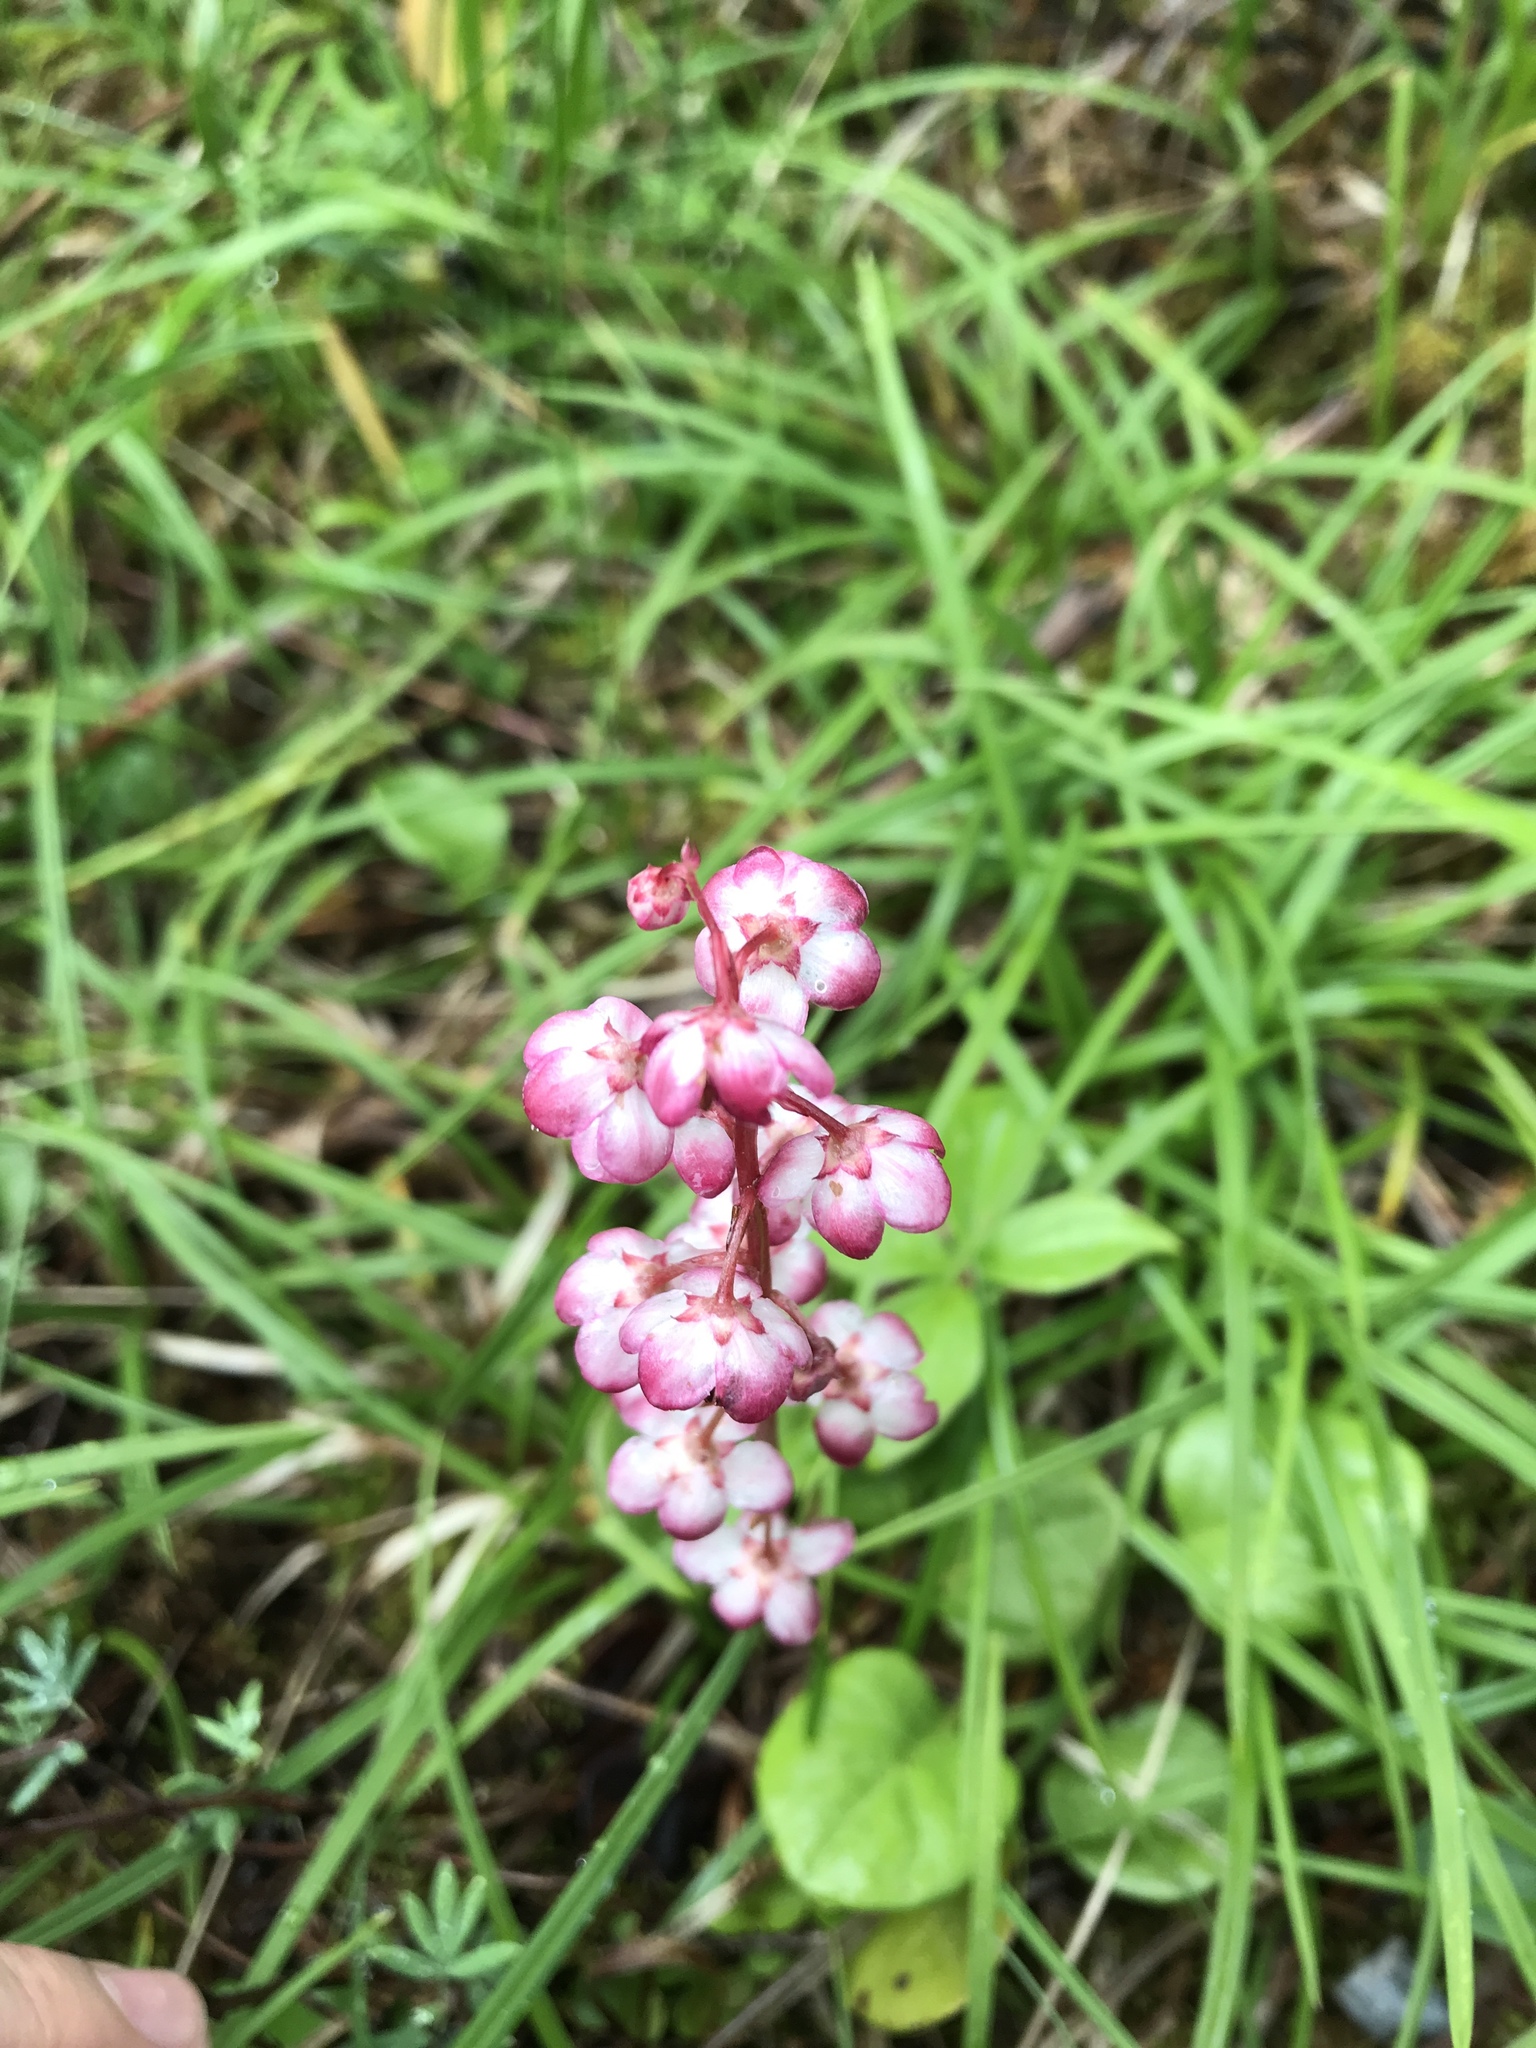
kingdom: Plantae
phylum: Tracheophyta
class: Magnoliopsida
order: Ericales
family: Ericaceae
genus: Pyrola
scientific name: Pyrola asarifolia
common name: Bog wintergreen
